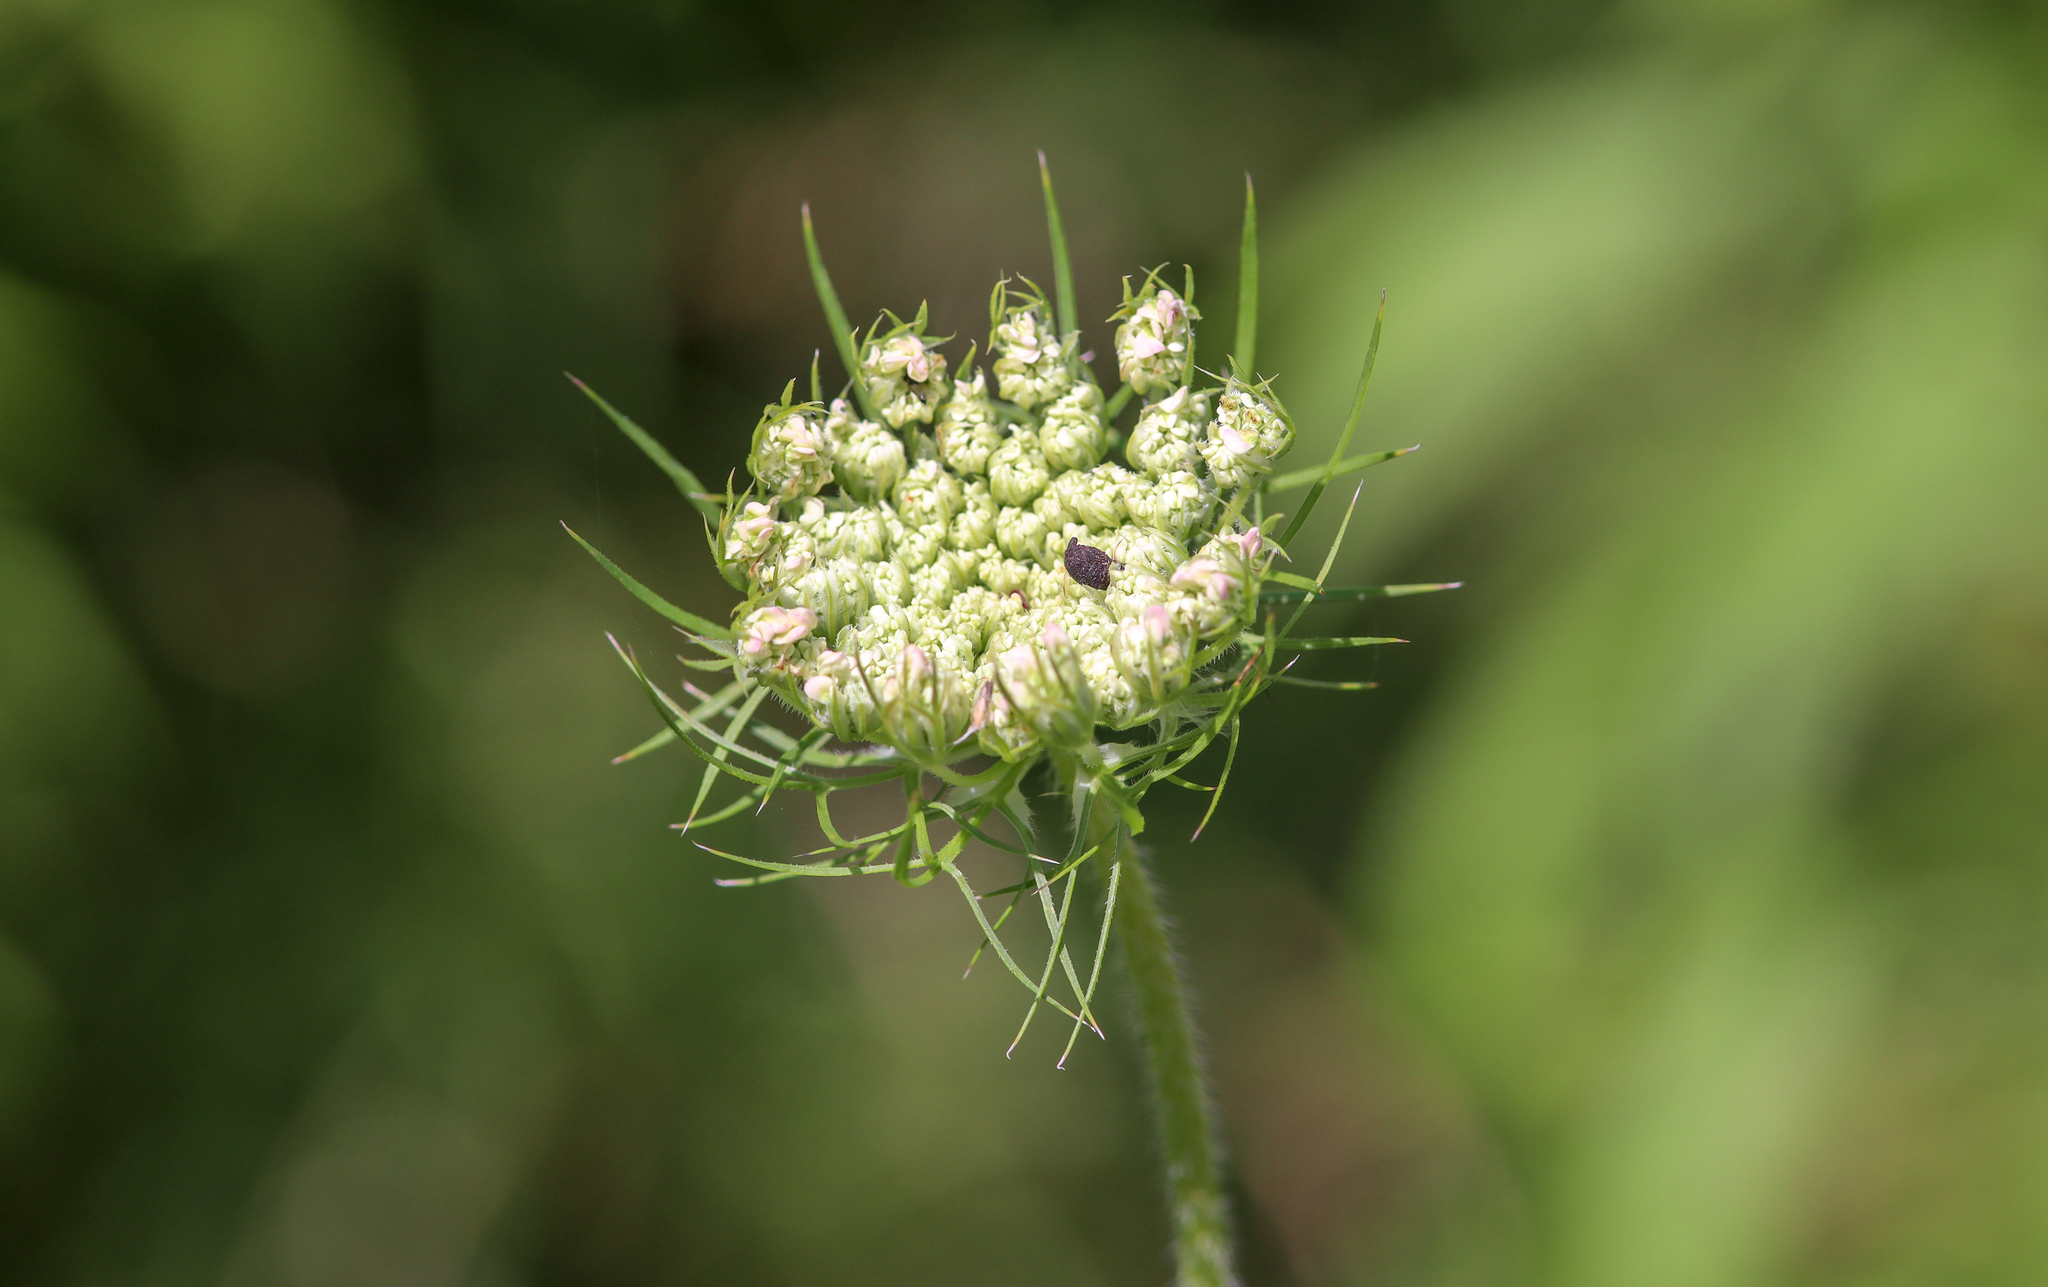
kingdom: Plantae
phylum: Tracheophyta
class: Magnoliopsida
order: Apiales
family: Apiaceae
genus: Daucus
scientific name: Daucus carota
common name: Wild carrot
